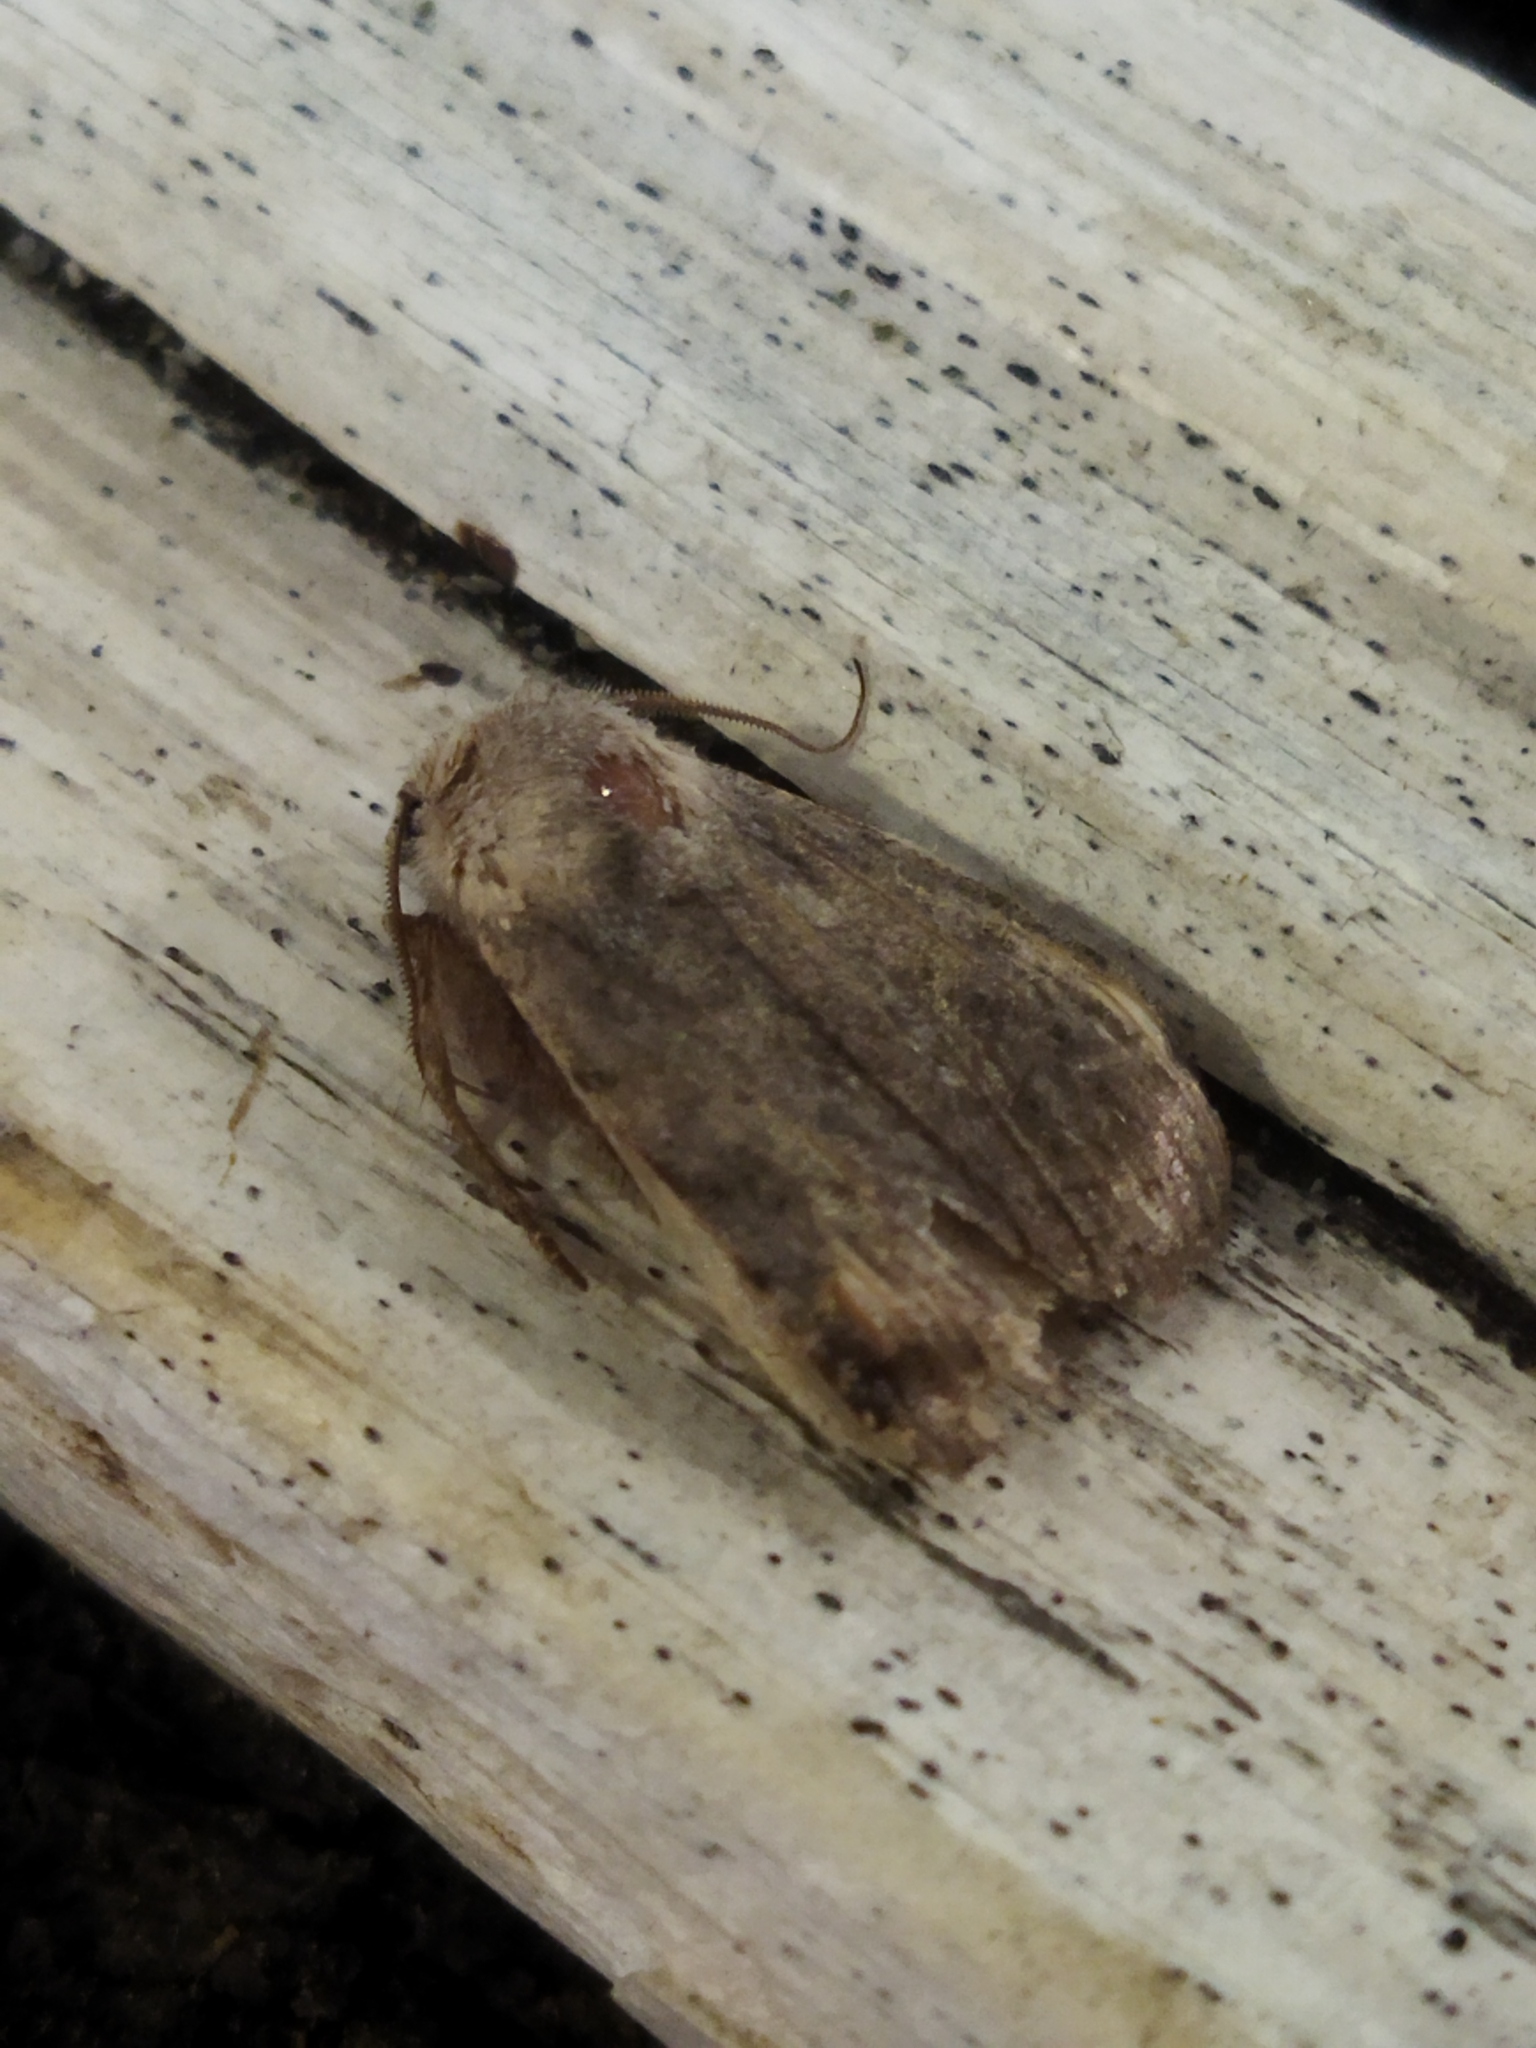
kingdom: Animalia
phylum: Arthropoda
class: Insecta
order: Lepidoptera
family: Noctuidae
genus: Cerastis
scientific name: Cerastis rubricosa
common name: Red chestnut
